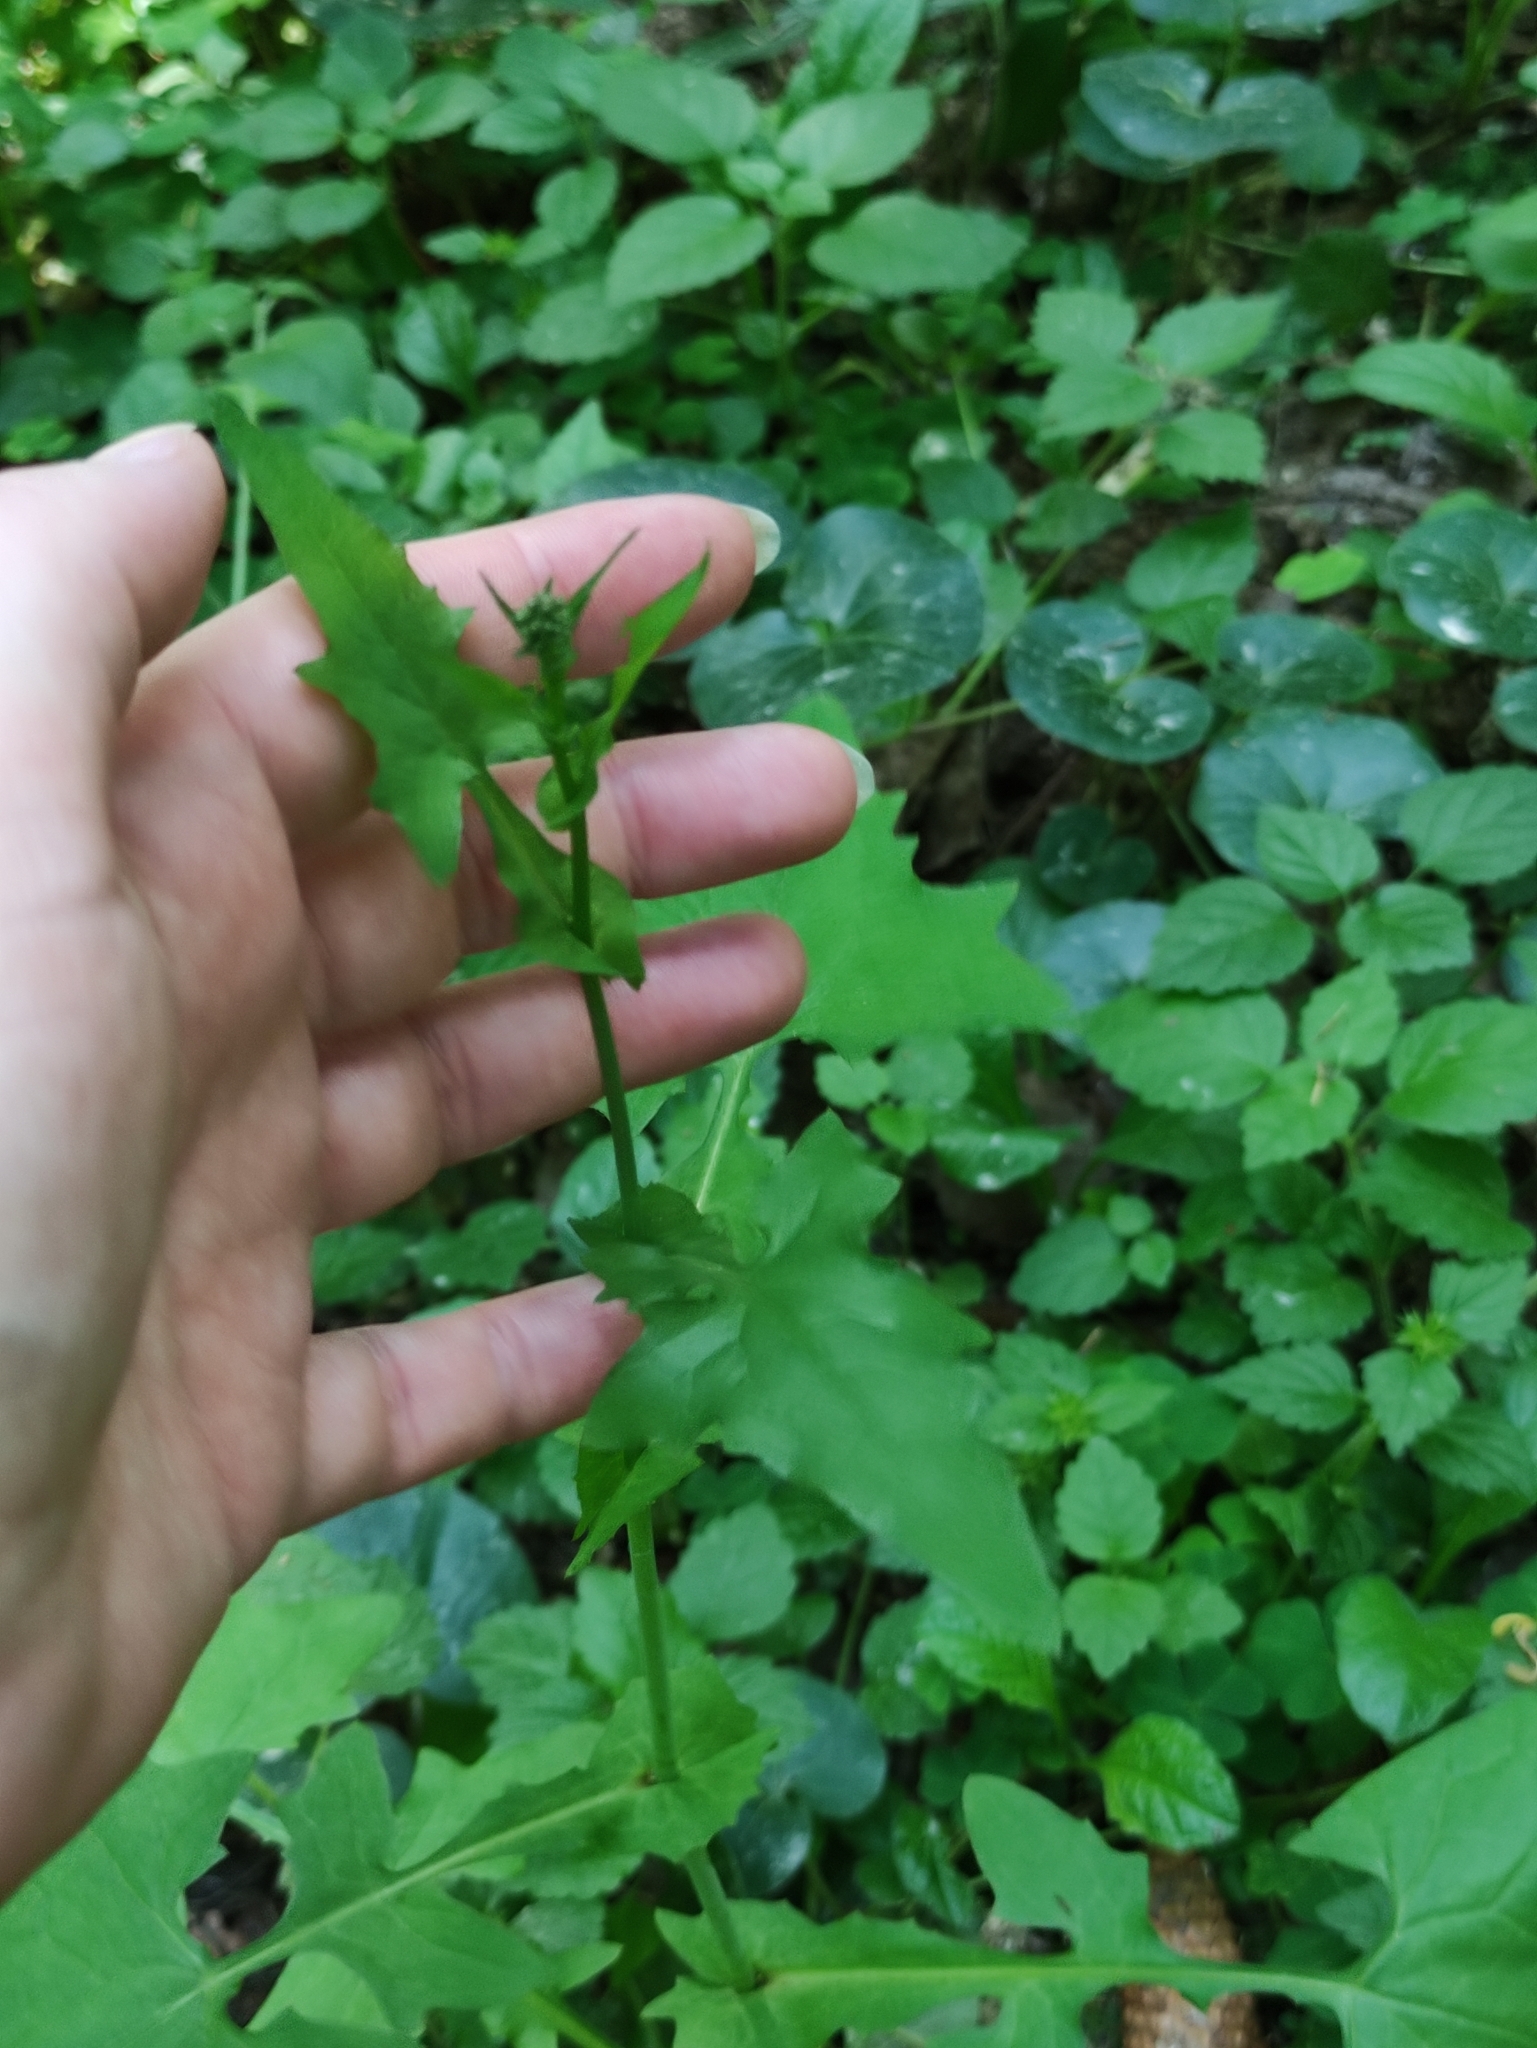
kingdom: Plantae
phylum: Tracheophyta
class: Magnoliopsida
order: Asterales
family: Asteraceae
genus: Mycelis
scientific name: Mycelis muralis
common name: Wall lettuce
